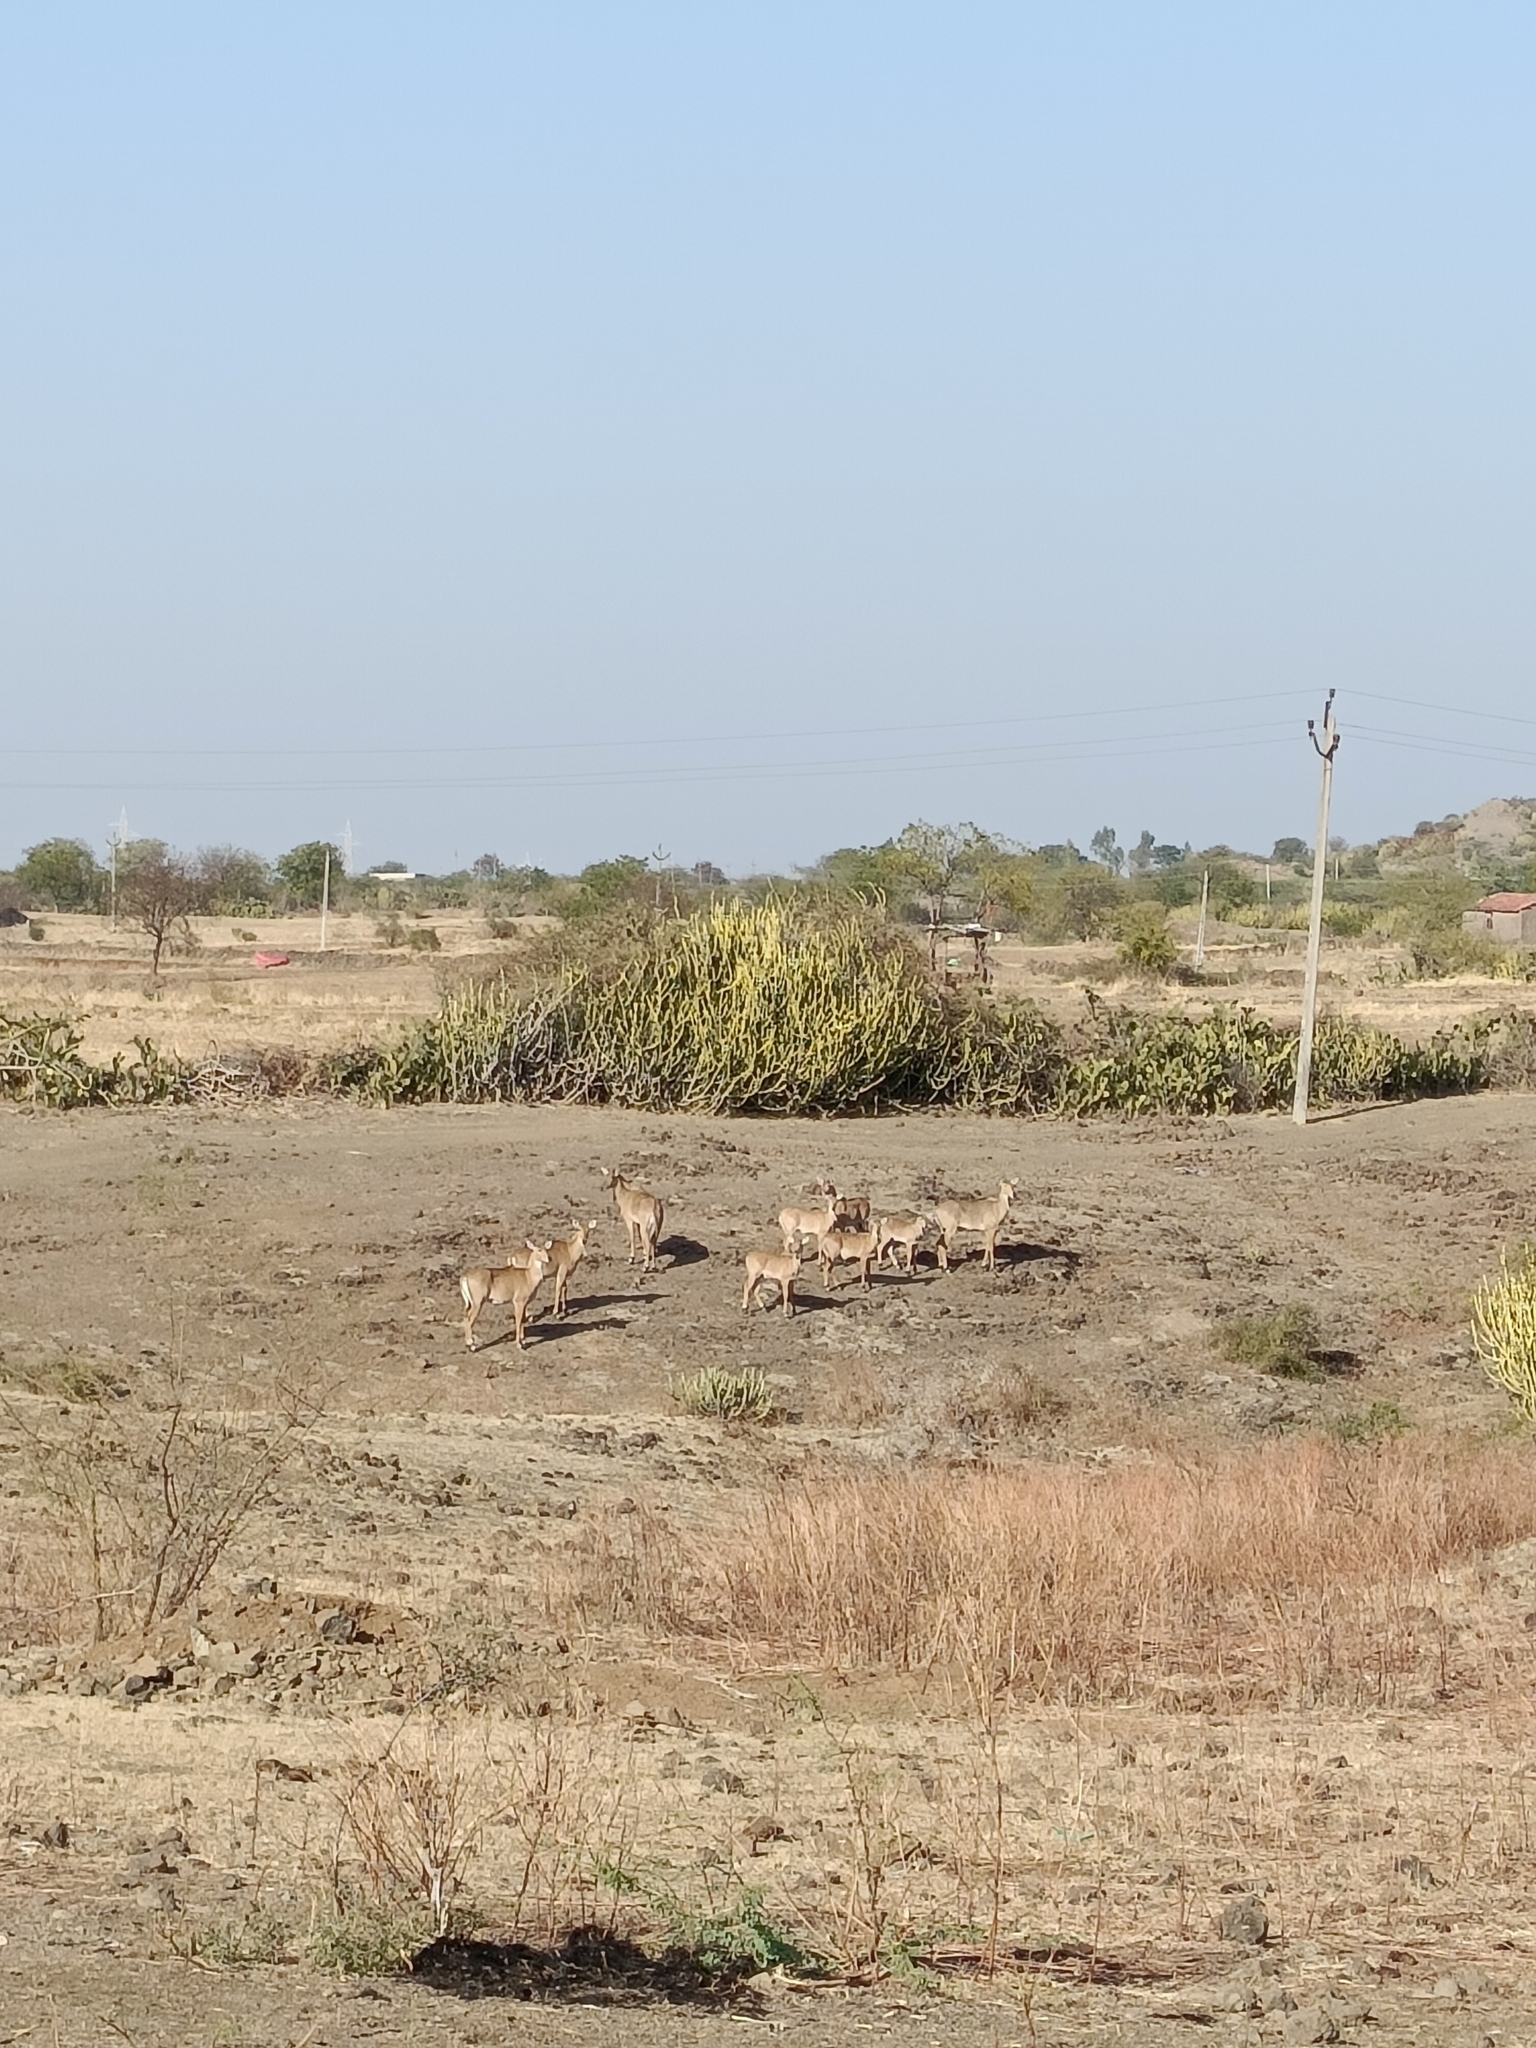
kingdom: Animalia
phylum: Chordata
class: Mammalia
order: Artiodactyla
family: Bovidae
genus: Boselaphus
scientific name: Boselaphus tragocamelus
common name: Nilgai
